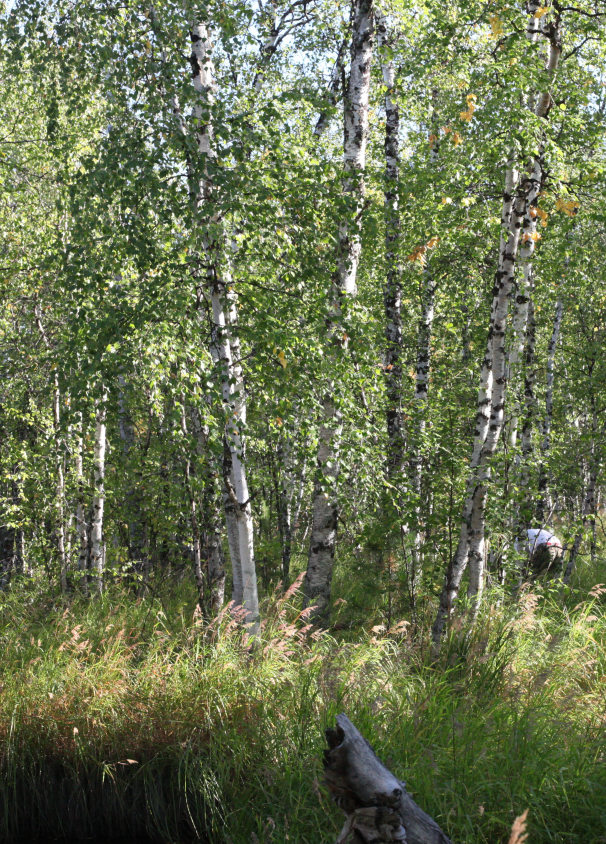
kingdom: Plantae
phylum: Tracheophyta
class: Magnoliopsida
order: Fagales
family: Betulaceae
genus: Betula
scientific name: Betula pubescens
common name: Downy birch
